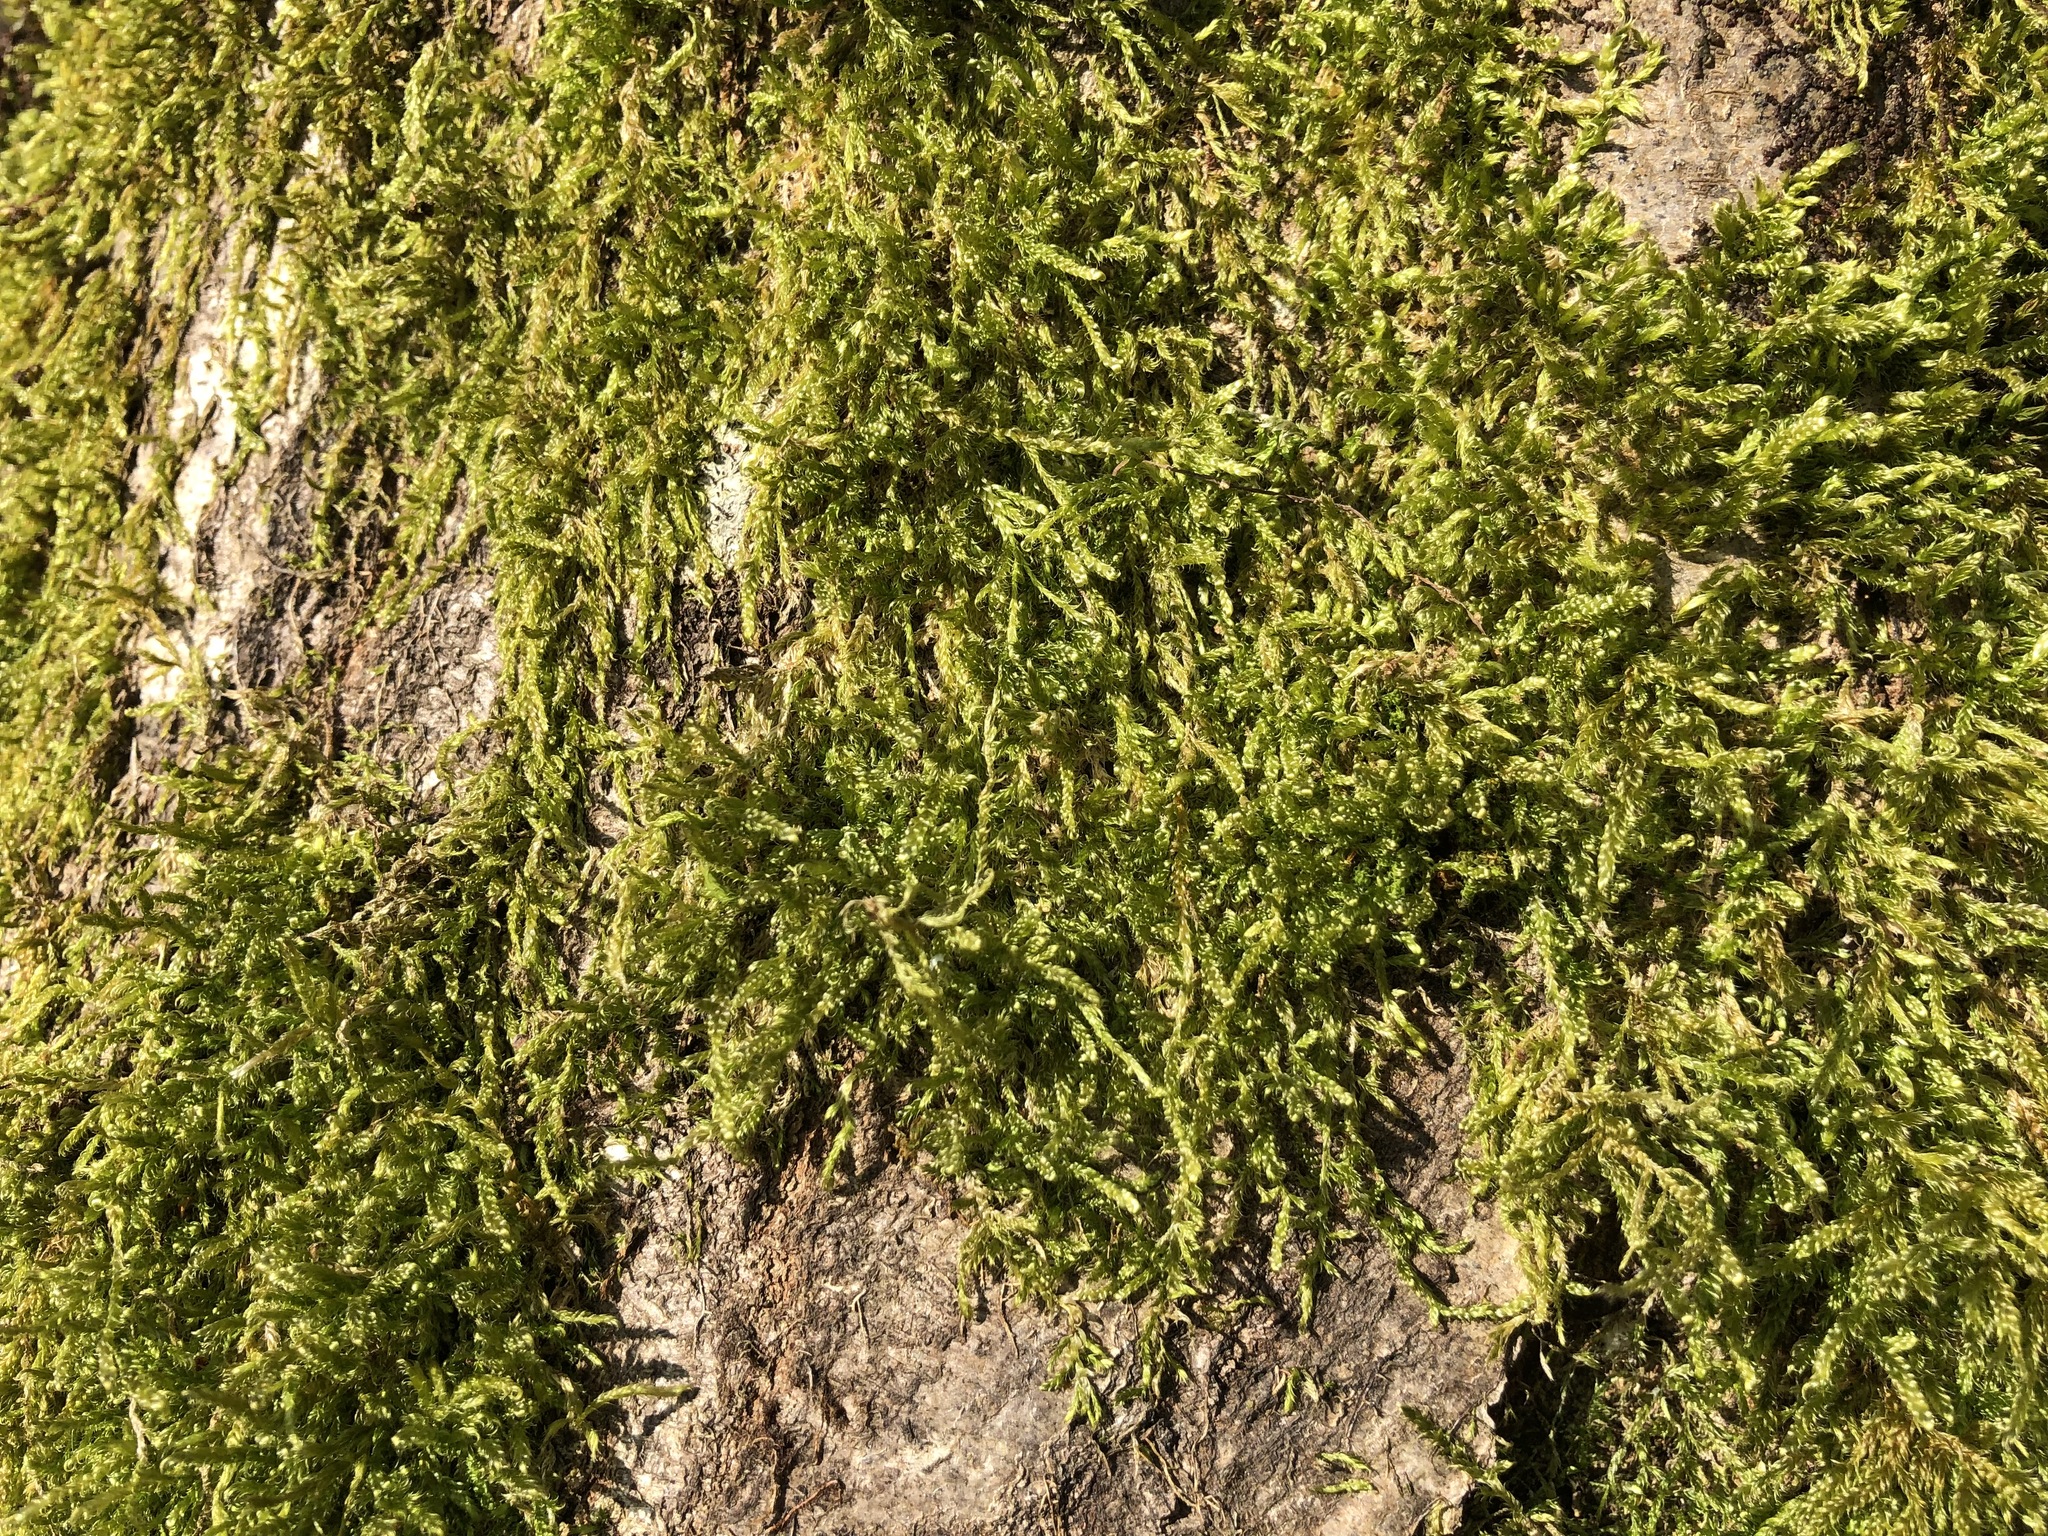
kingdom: Plantae
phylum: Bryophyta
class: Bryopsida
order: Hypnales
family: Hypnaceae
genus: Hypnum
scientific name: Hypnum cupressiforme
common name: Cypress-leaved plait-moss
